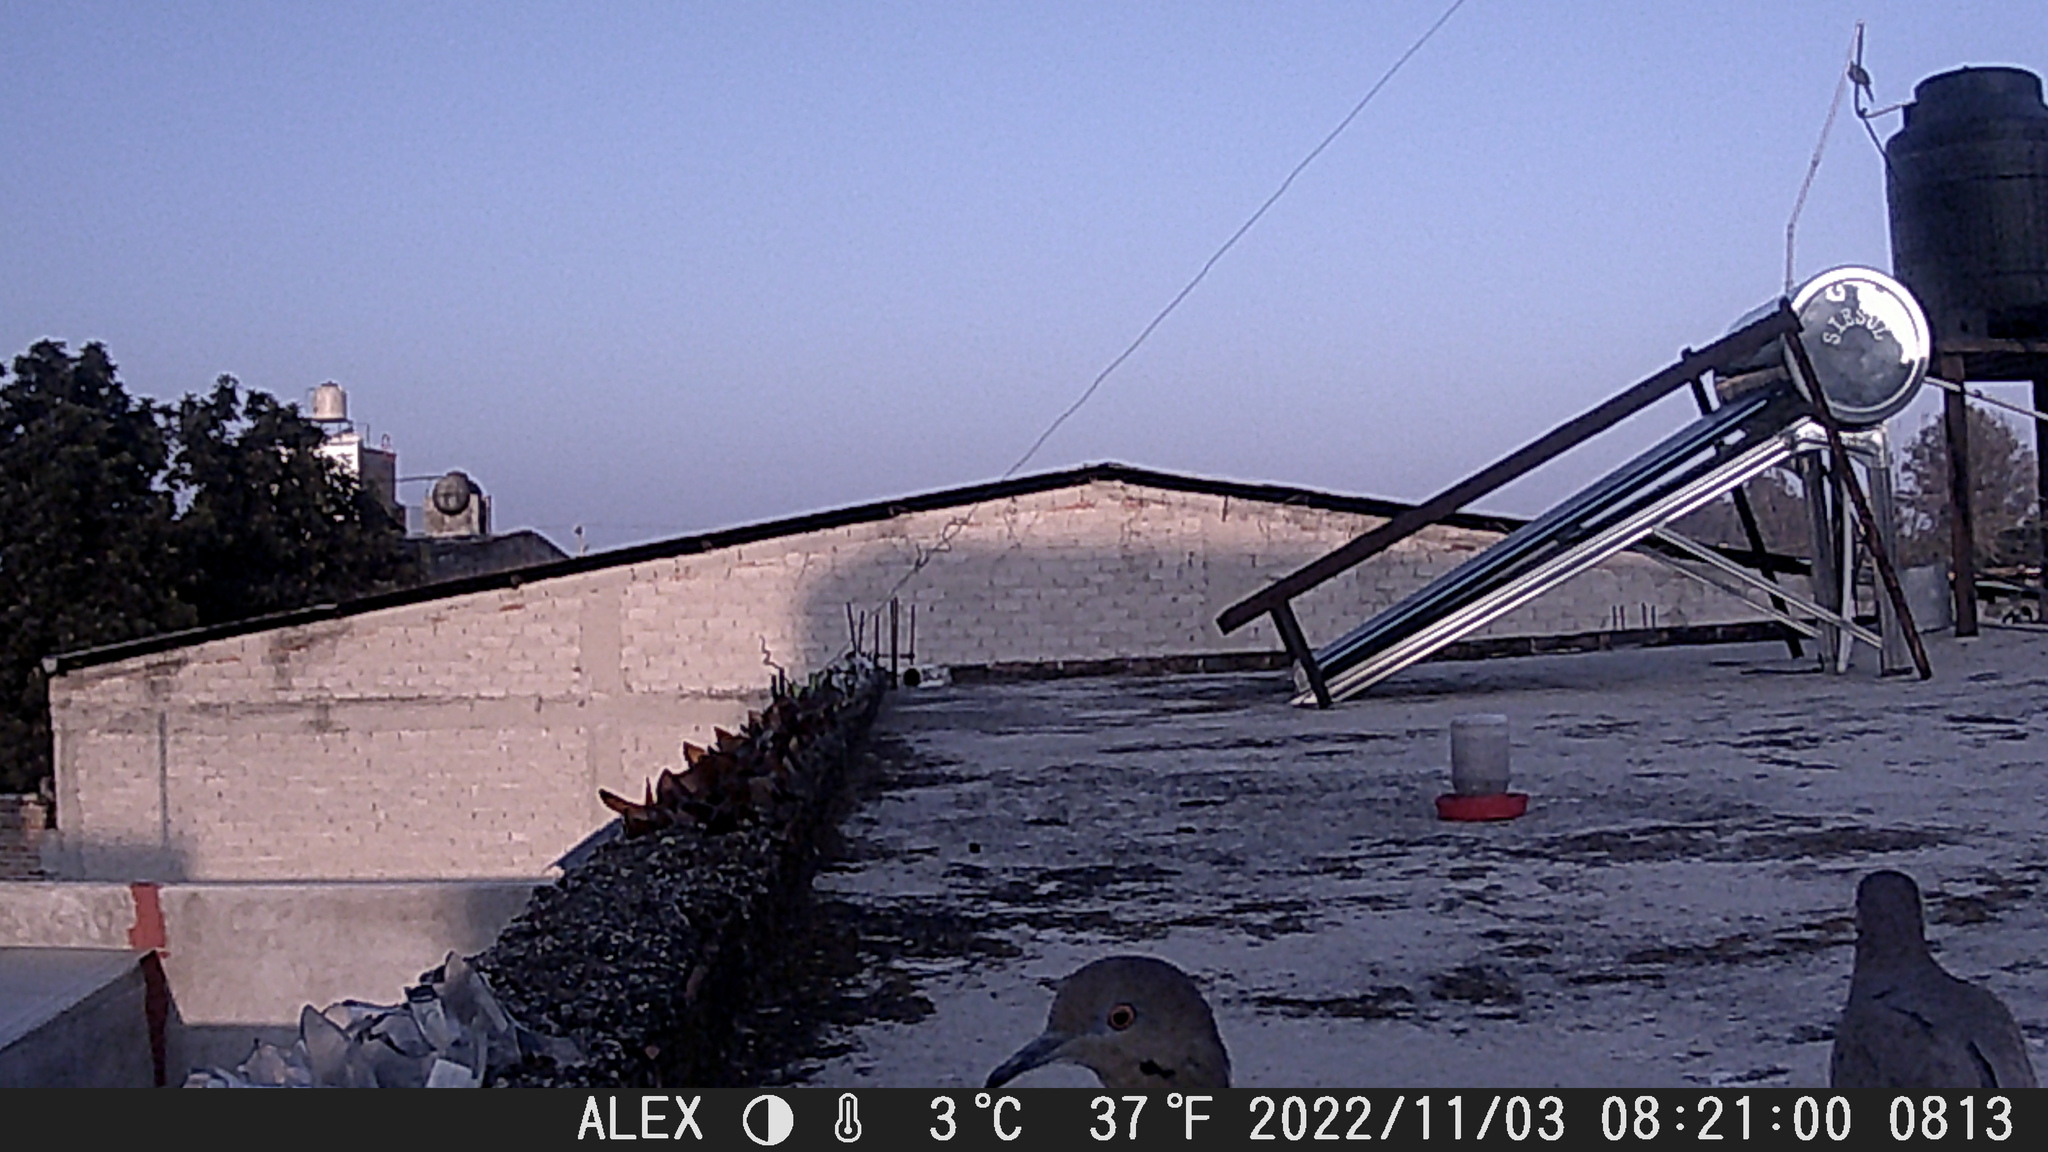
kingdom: Animalia
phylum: Chordata
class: Aves
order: Columbiformes
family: Columbidae
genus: Zenaida
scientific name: Zenaida asiatica
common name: White-winged dove
